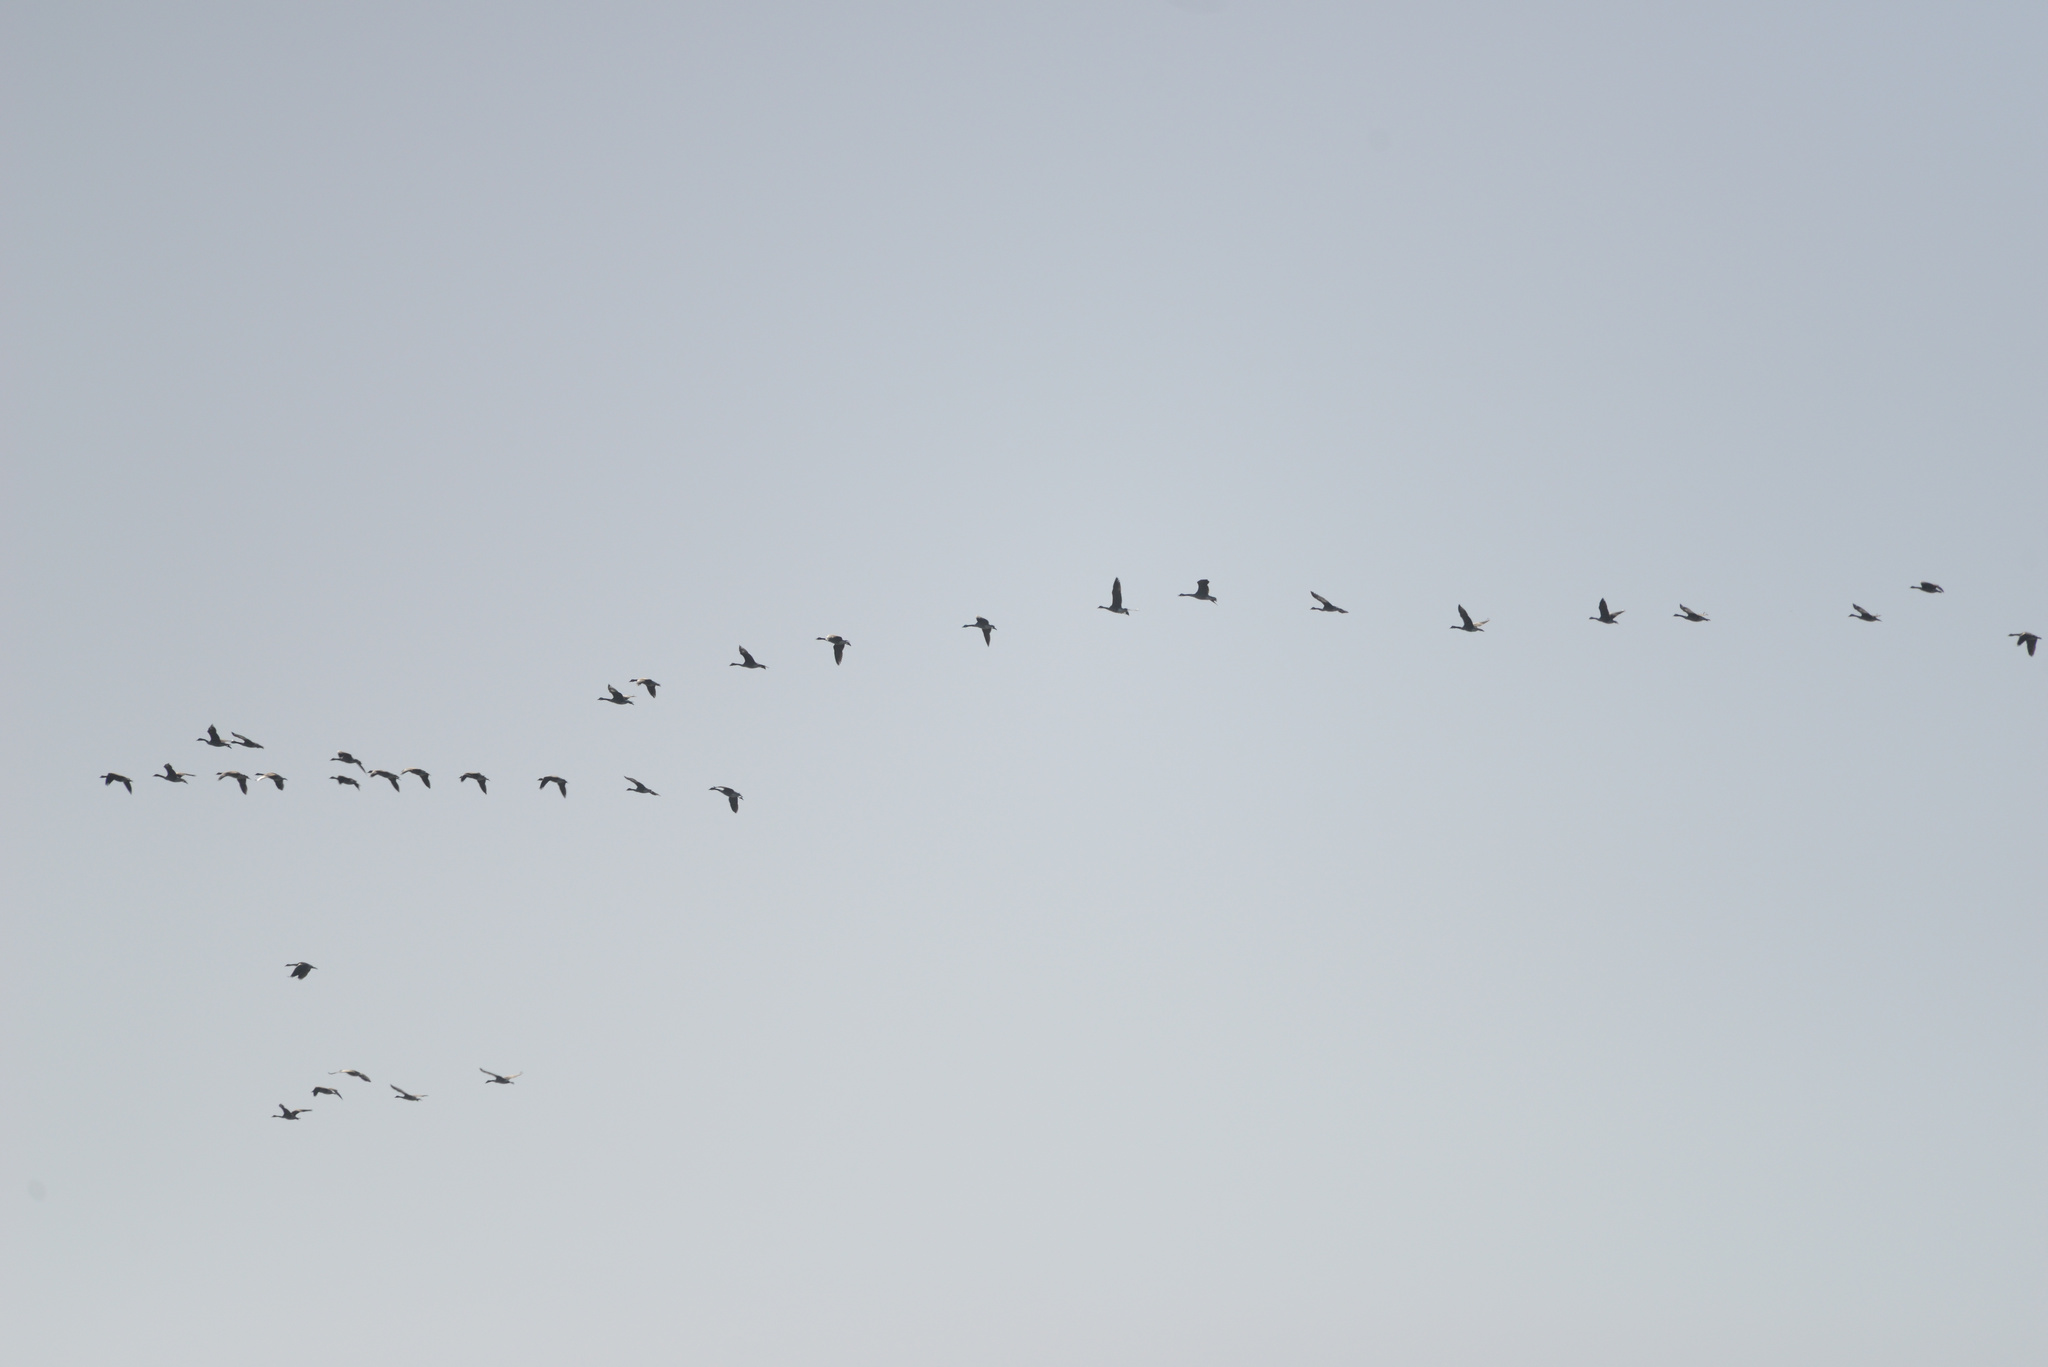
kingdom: Animalia
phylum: Chordata
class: Aves
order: Anseriformes
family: Anatidae
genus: Branta
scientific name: Branta canadensis
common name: Canada goose
